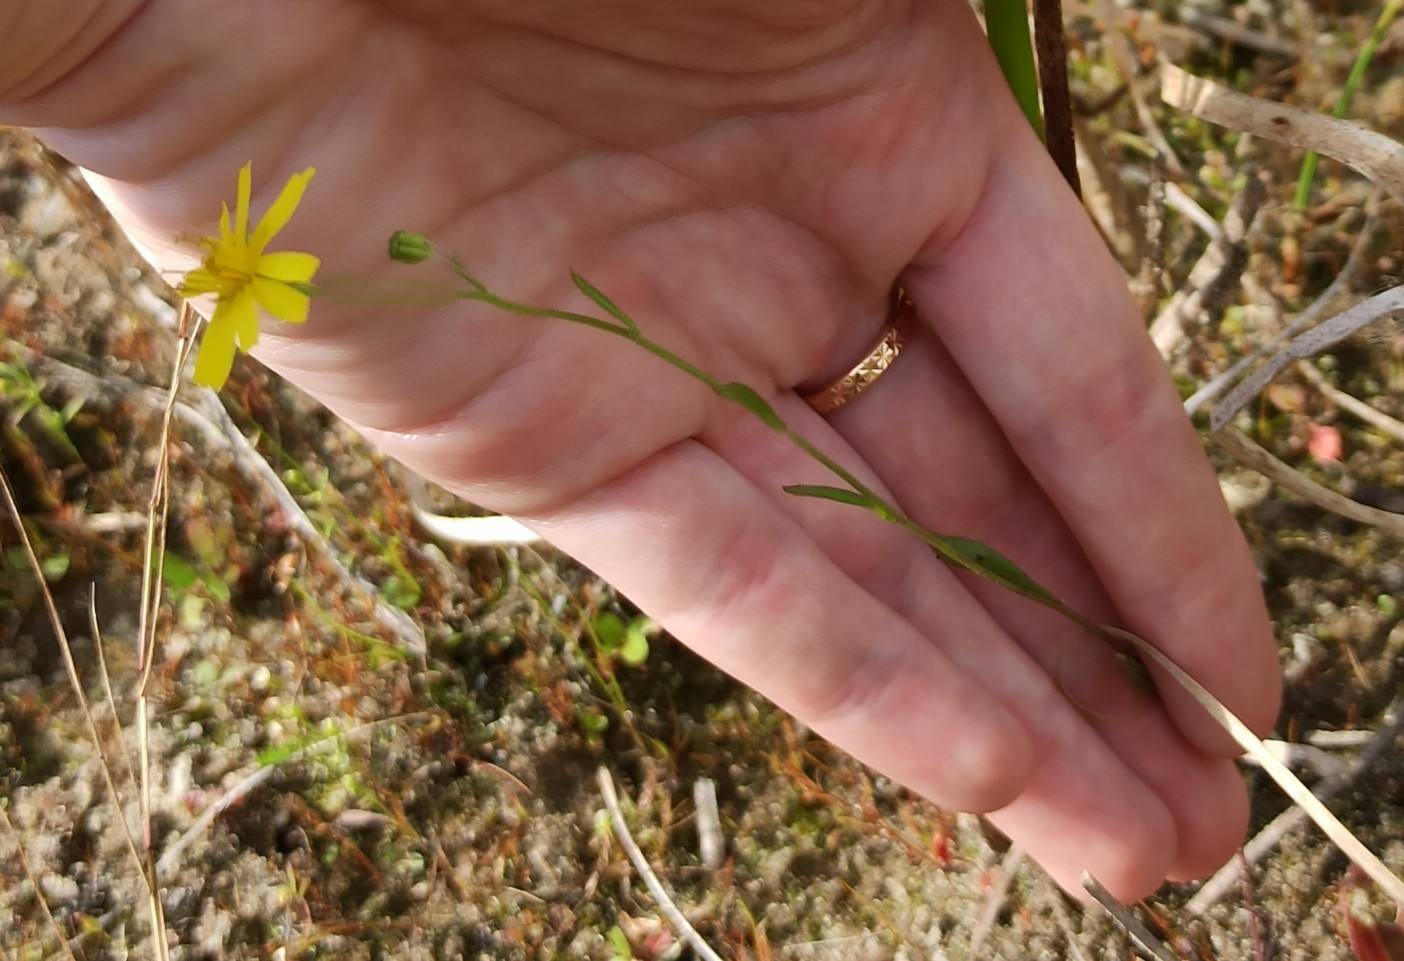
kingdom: Plantae
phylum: Tracheophyta
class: Magnoliopsida
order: Asterales
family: Asteraceae
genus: Crepis
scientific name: Crepis tectorum
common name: Narrow-leaved hawk's-beard
